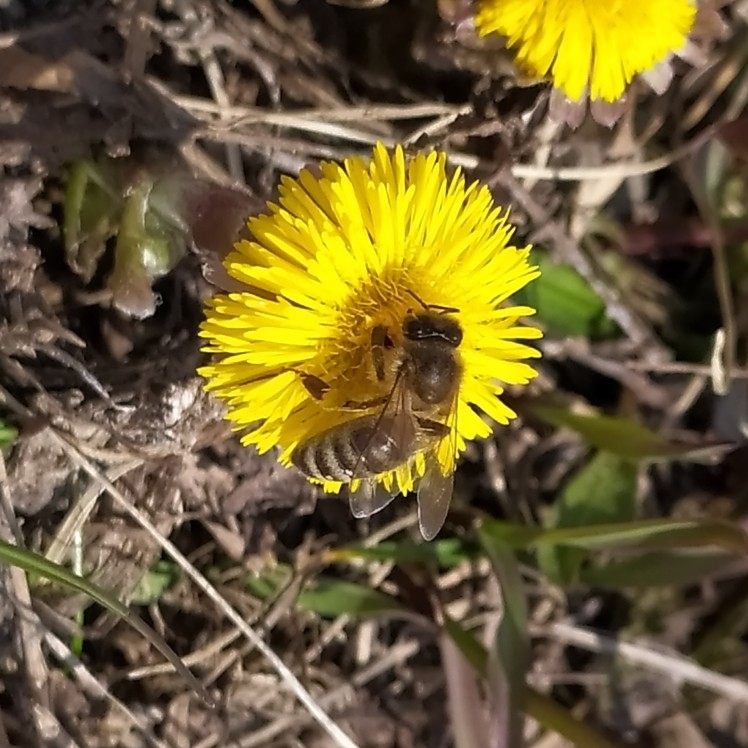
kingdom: Animalia
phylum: Arthropoda
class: Insecta
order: Hymenoptera
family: Apidae
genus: Apis
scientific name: Apis mellifera
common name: Honey bee
